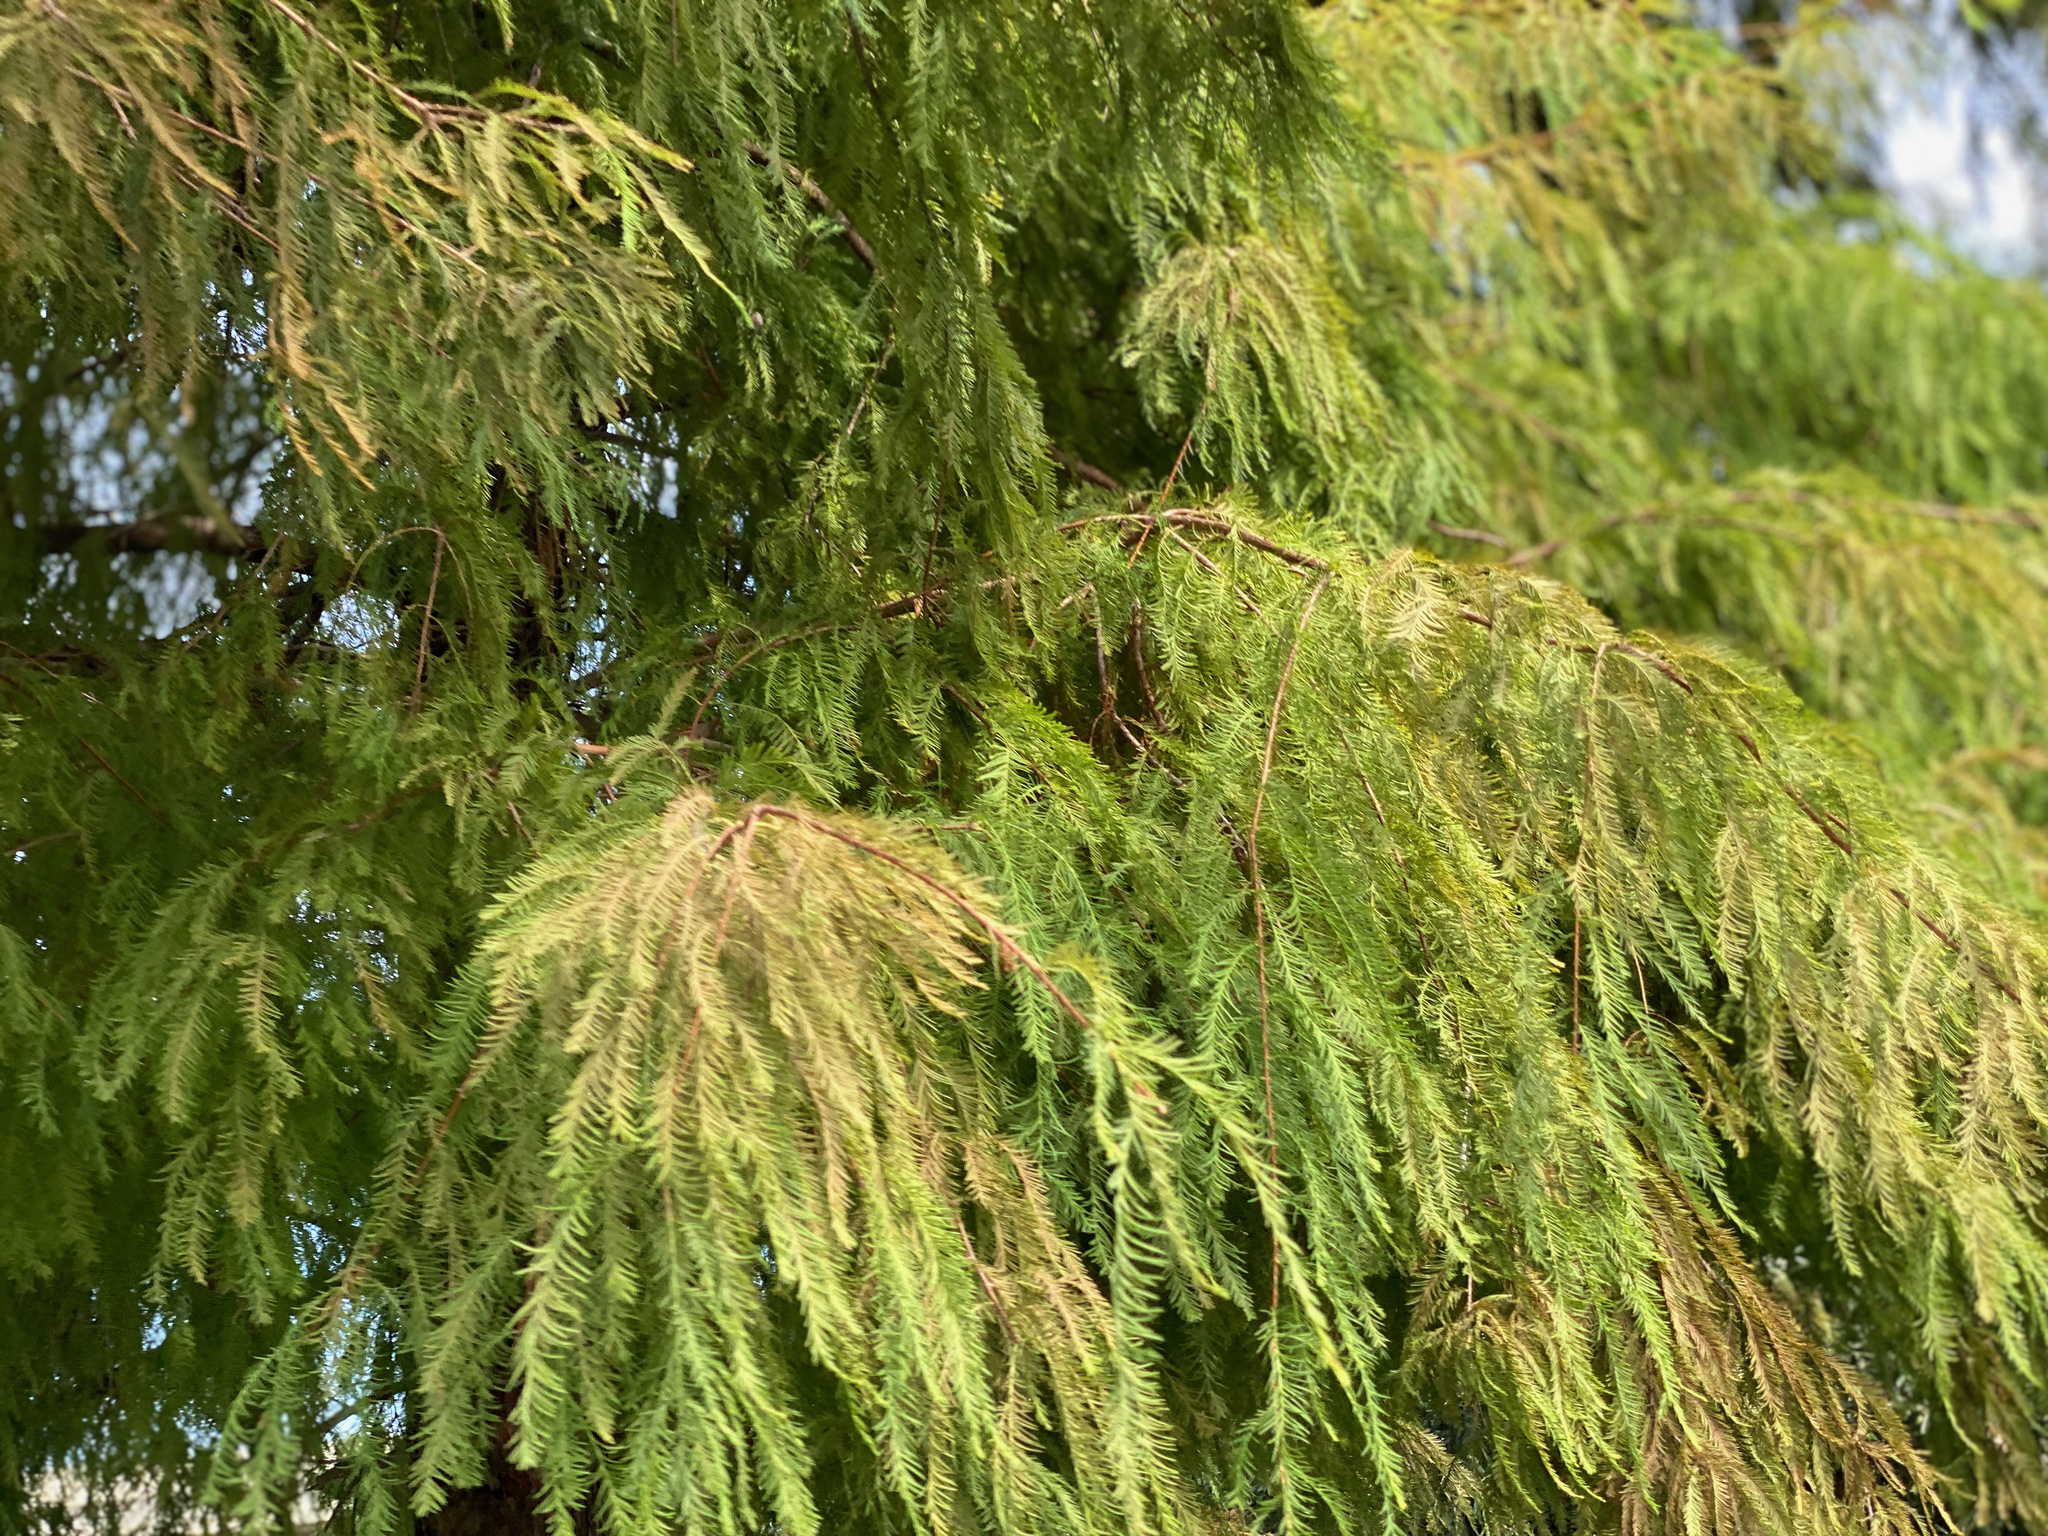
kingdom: Plantae
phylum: Tracheophyta
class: Pinopsida
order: Pinales
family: Cupressaceae
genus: Taxodium
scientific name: Taxodium distichum
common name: Bald cypress
